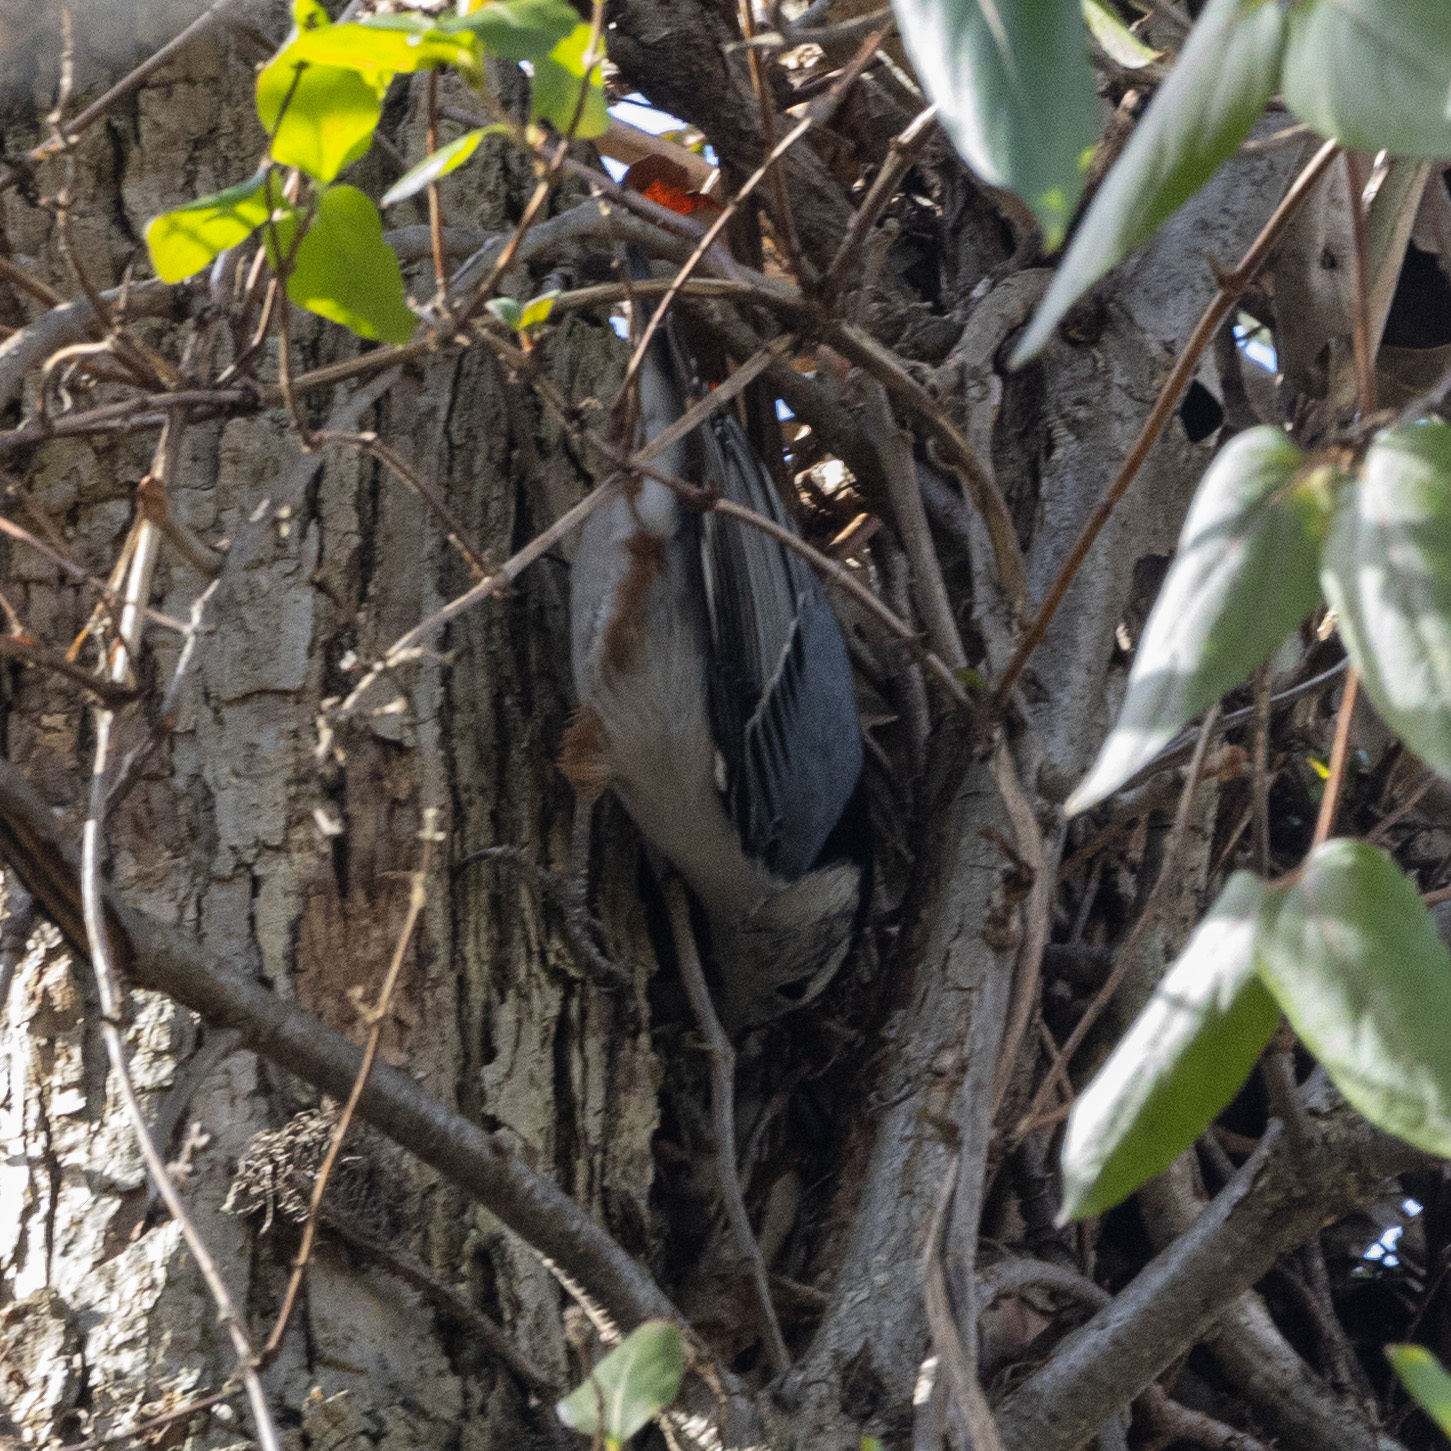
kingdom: Animalia
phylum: Chordata
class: Aves
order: Passeriformes
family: Sittidae
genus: Sitta
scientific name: Sitta carolinensis
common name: White-breasted nuthatch
